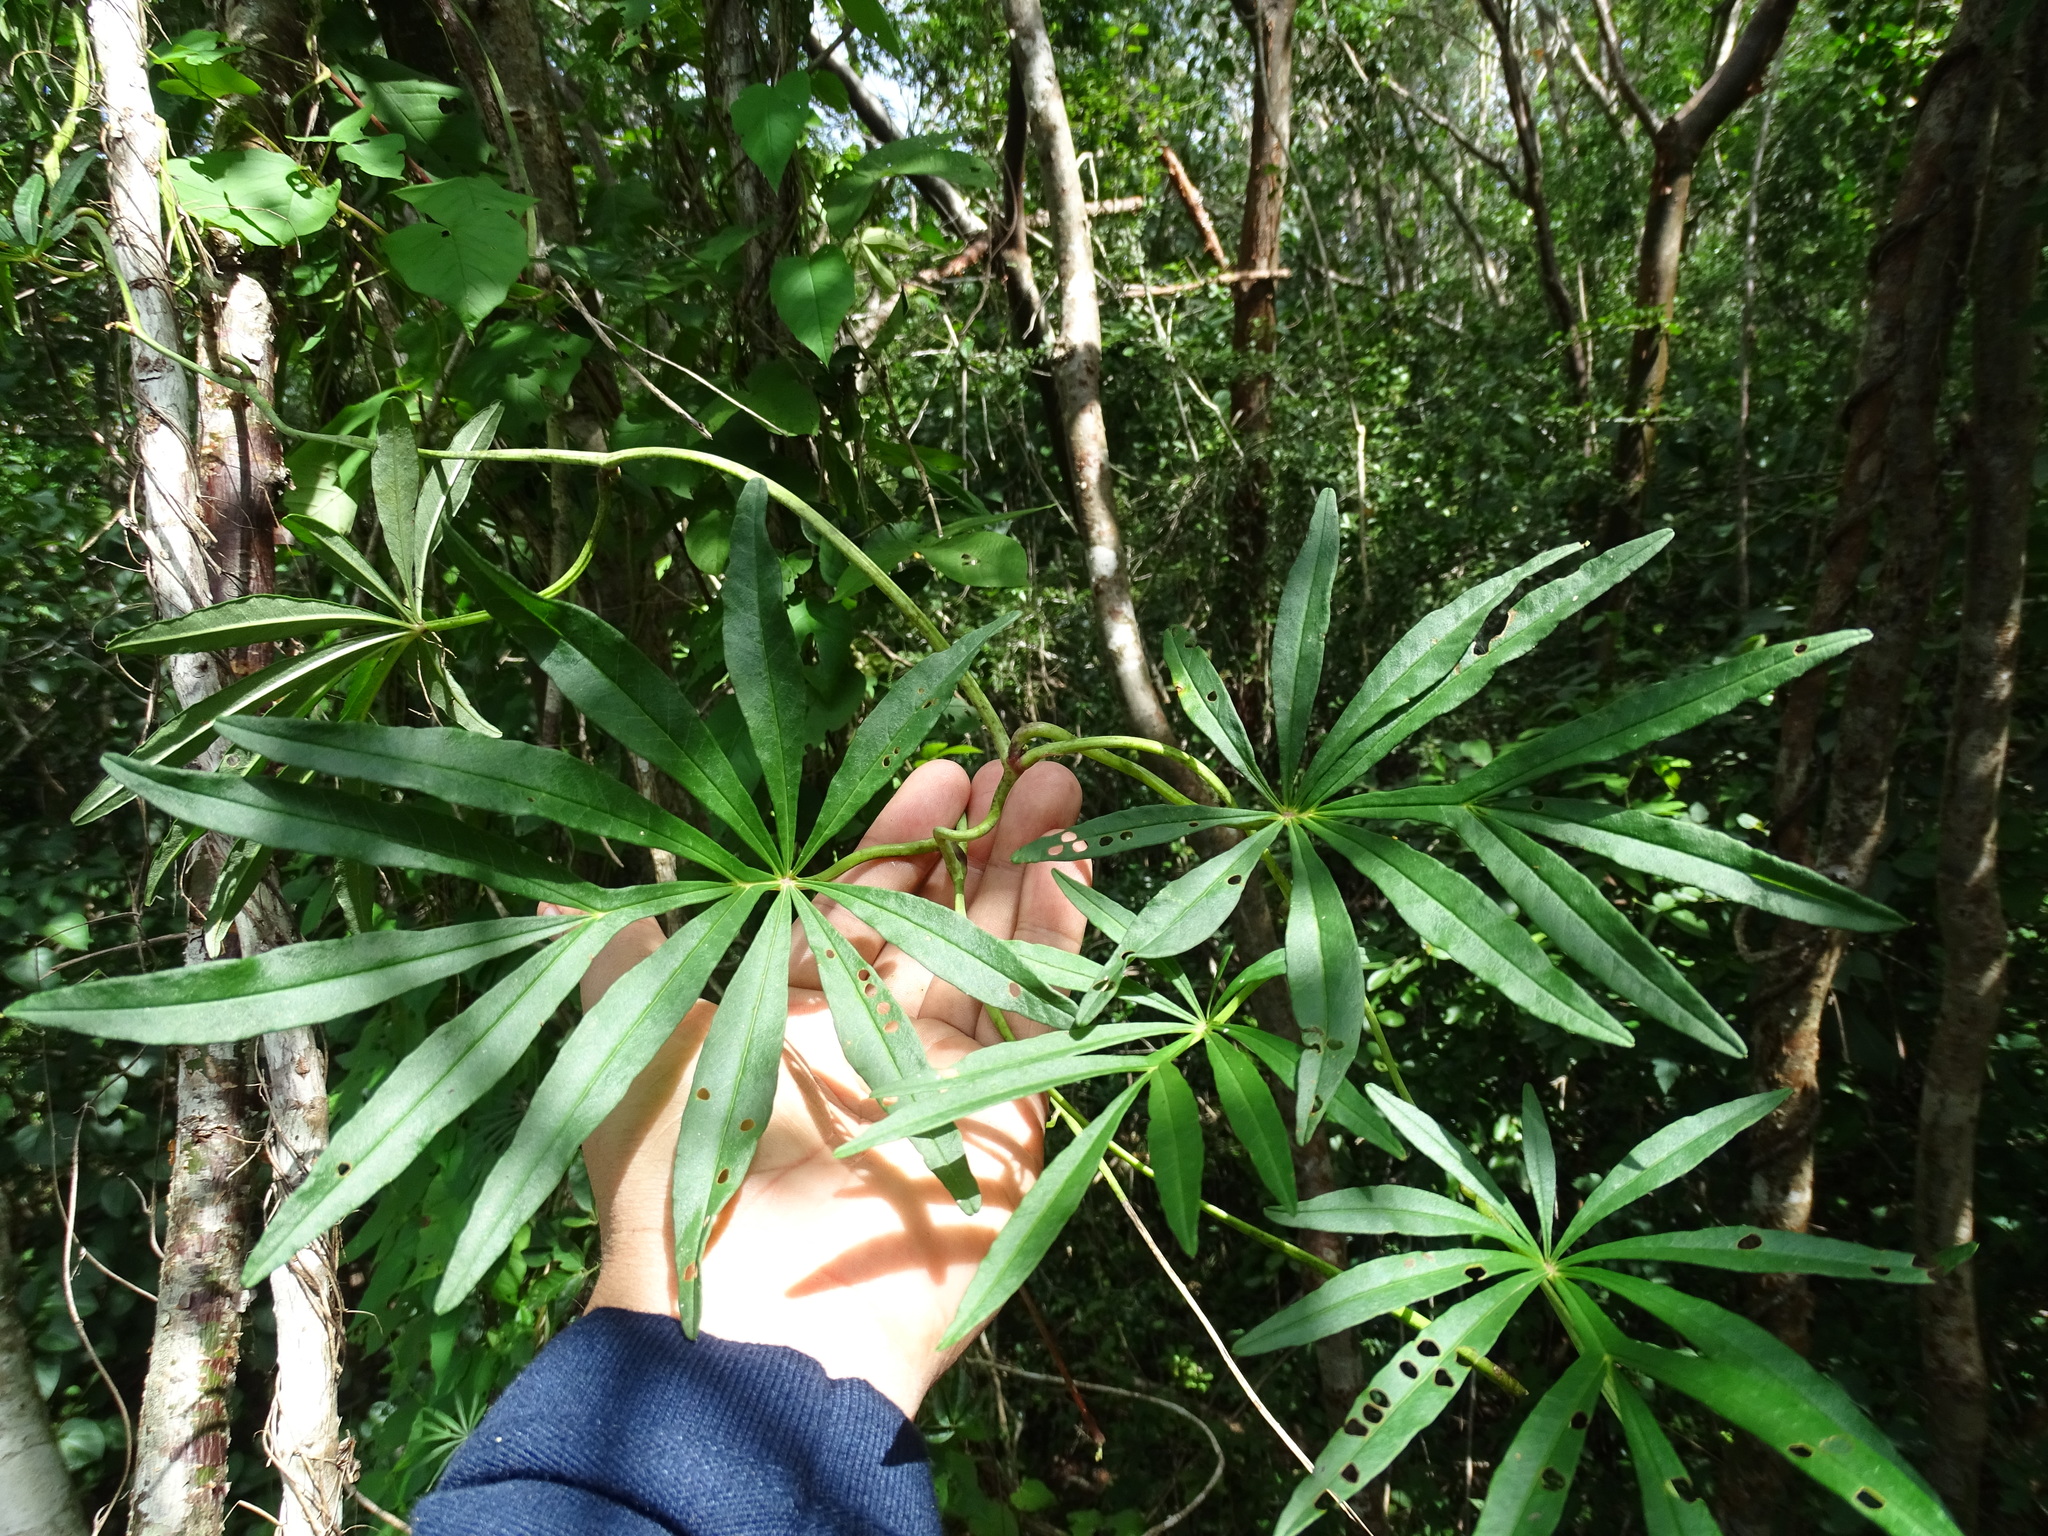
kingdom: Plantae
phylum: Tracheophyta
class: Magnoliopsida
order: Solanales
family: Convolvulaceae
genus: Ipomoea
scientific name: Ipomoea heterodoxa
